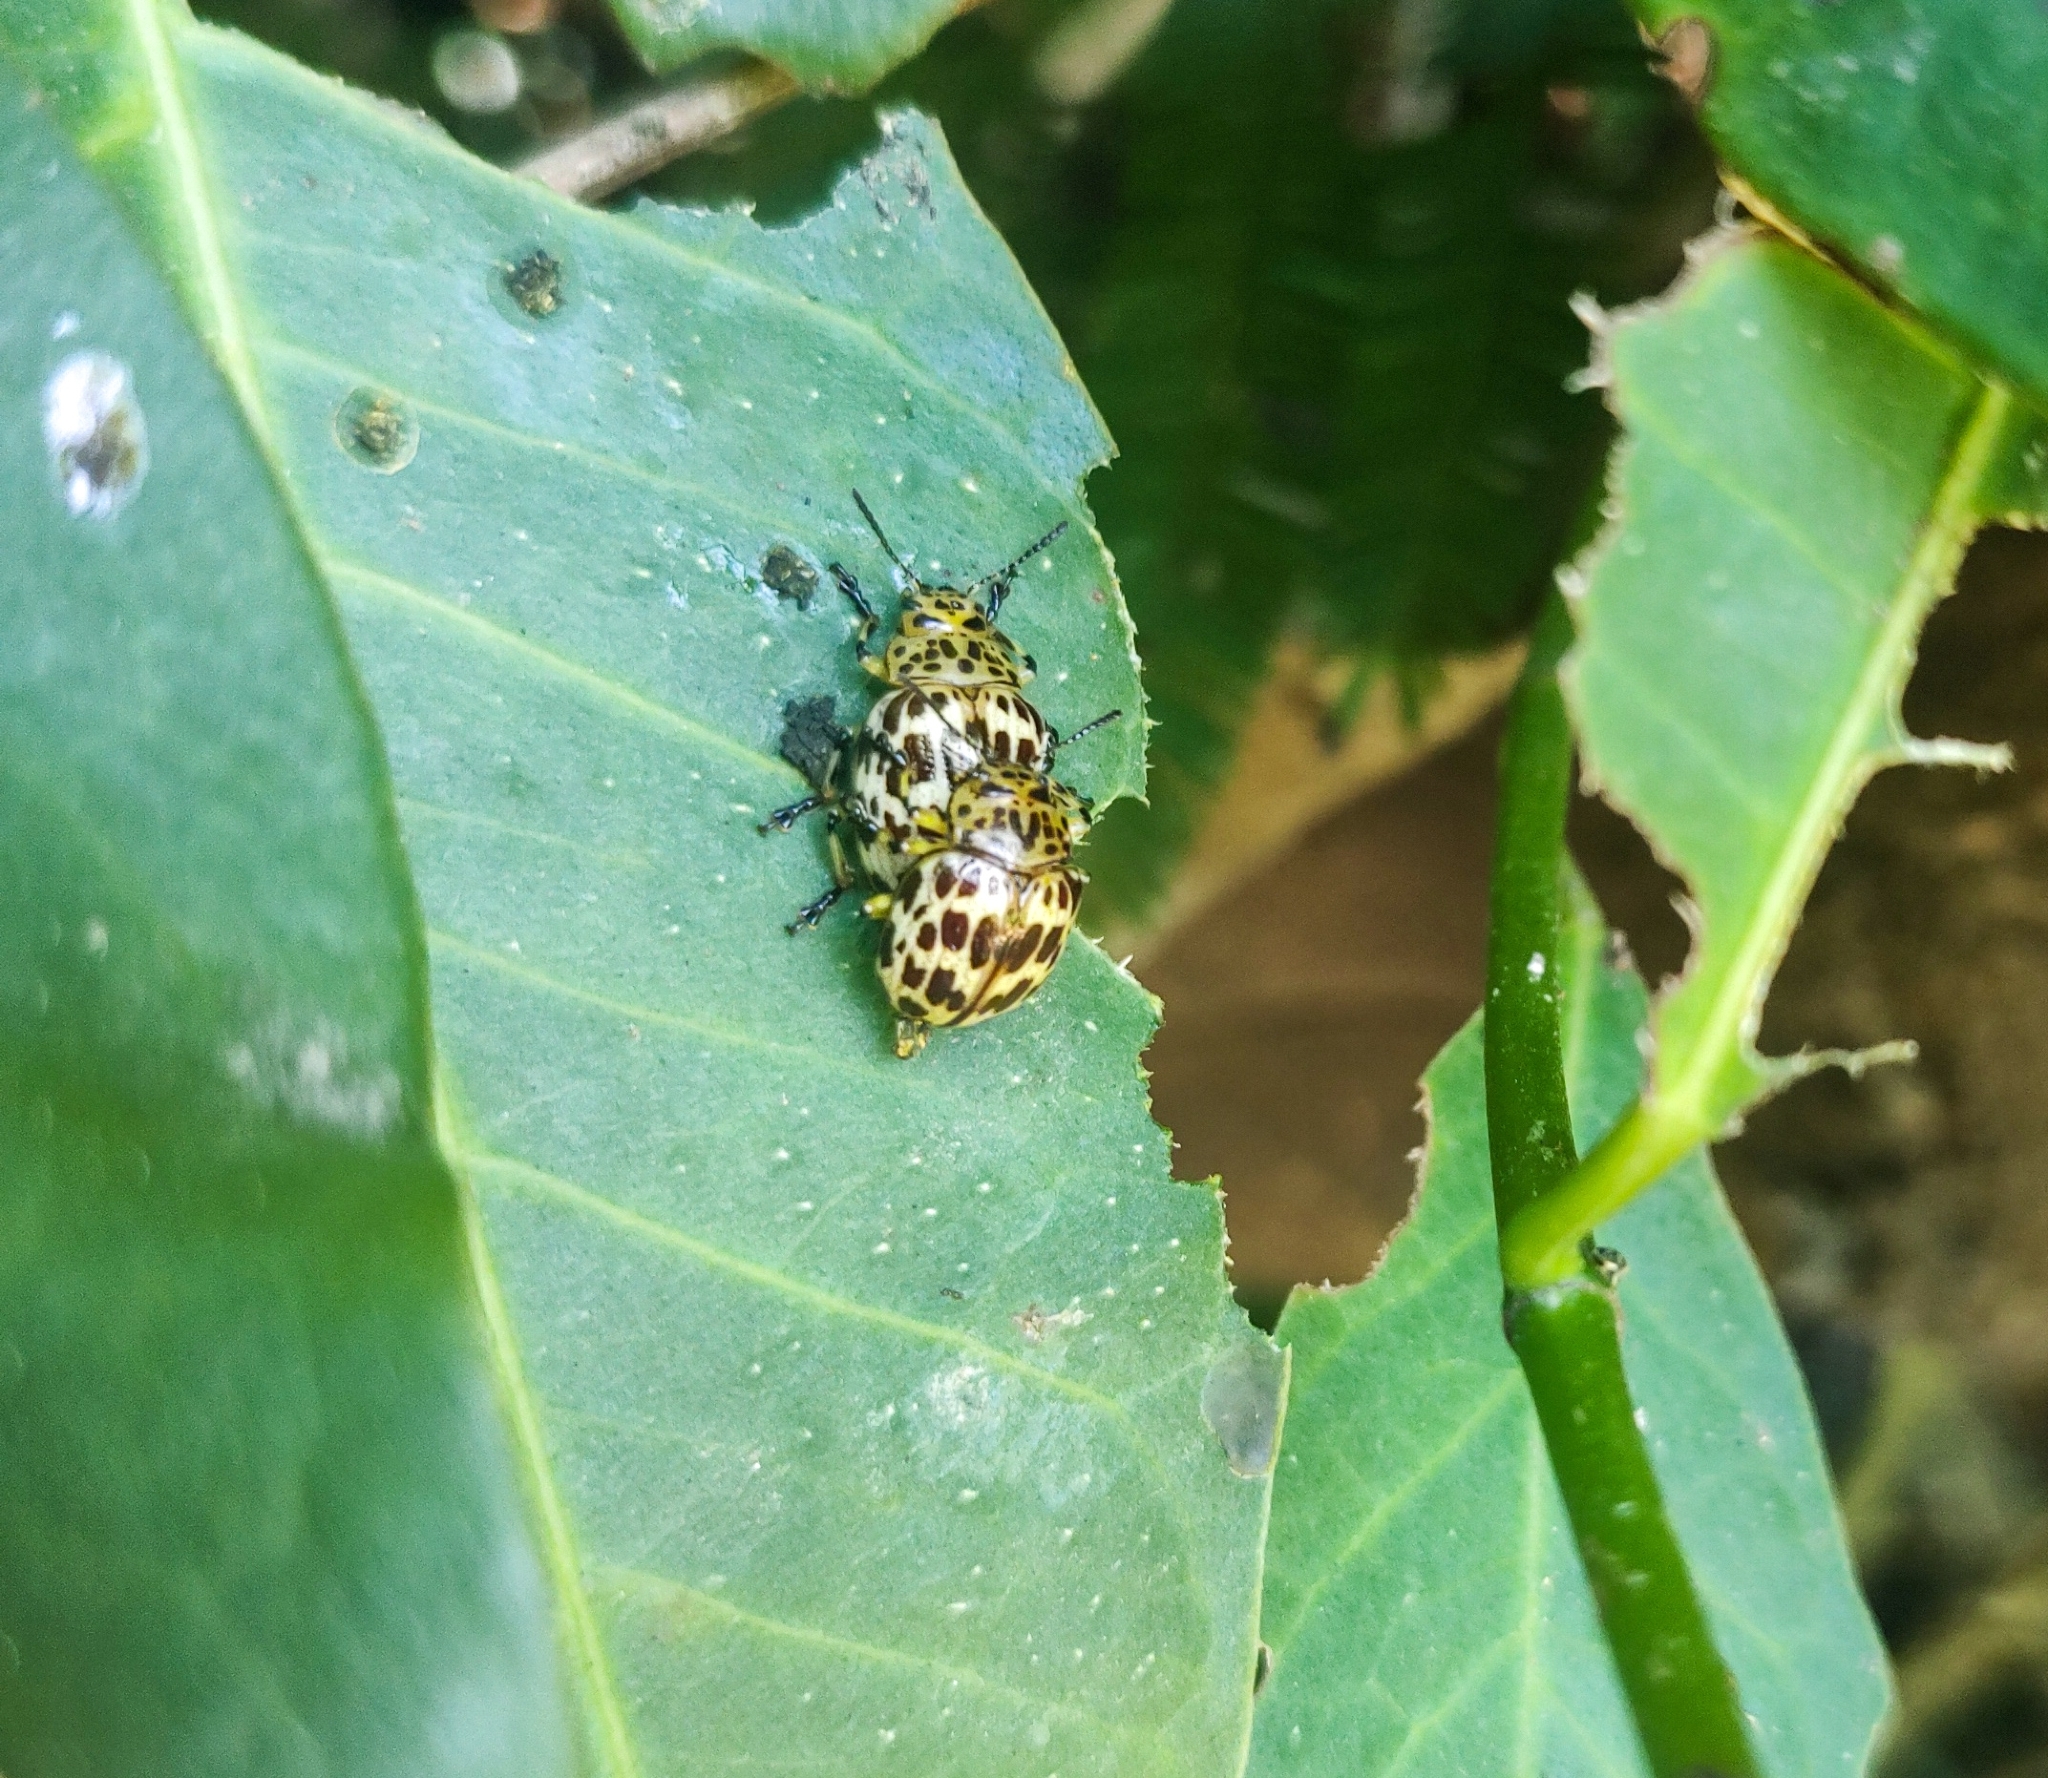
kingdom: Animalia
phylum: Arthropoda
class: Insecta
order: Coleoptera
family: Chrysomelidae
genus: Platyphora
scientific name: Platyphora
